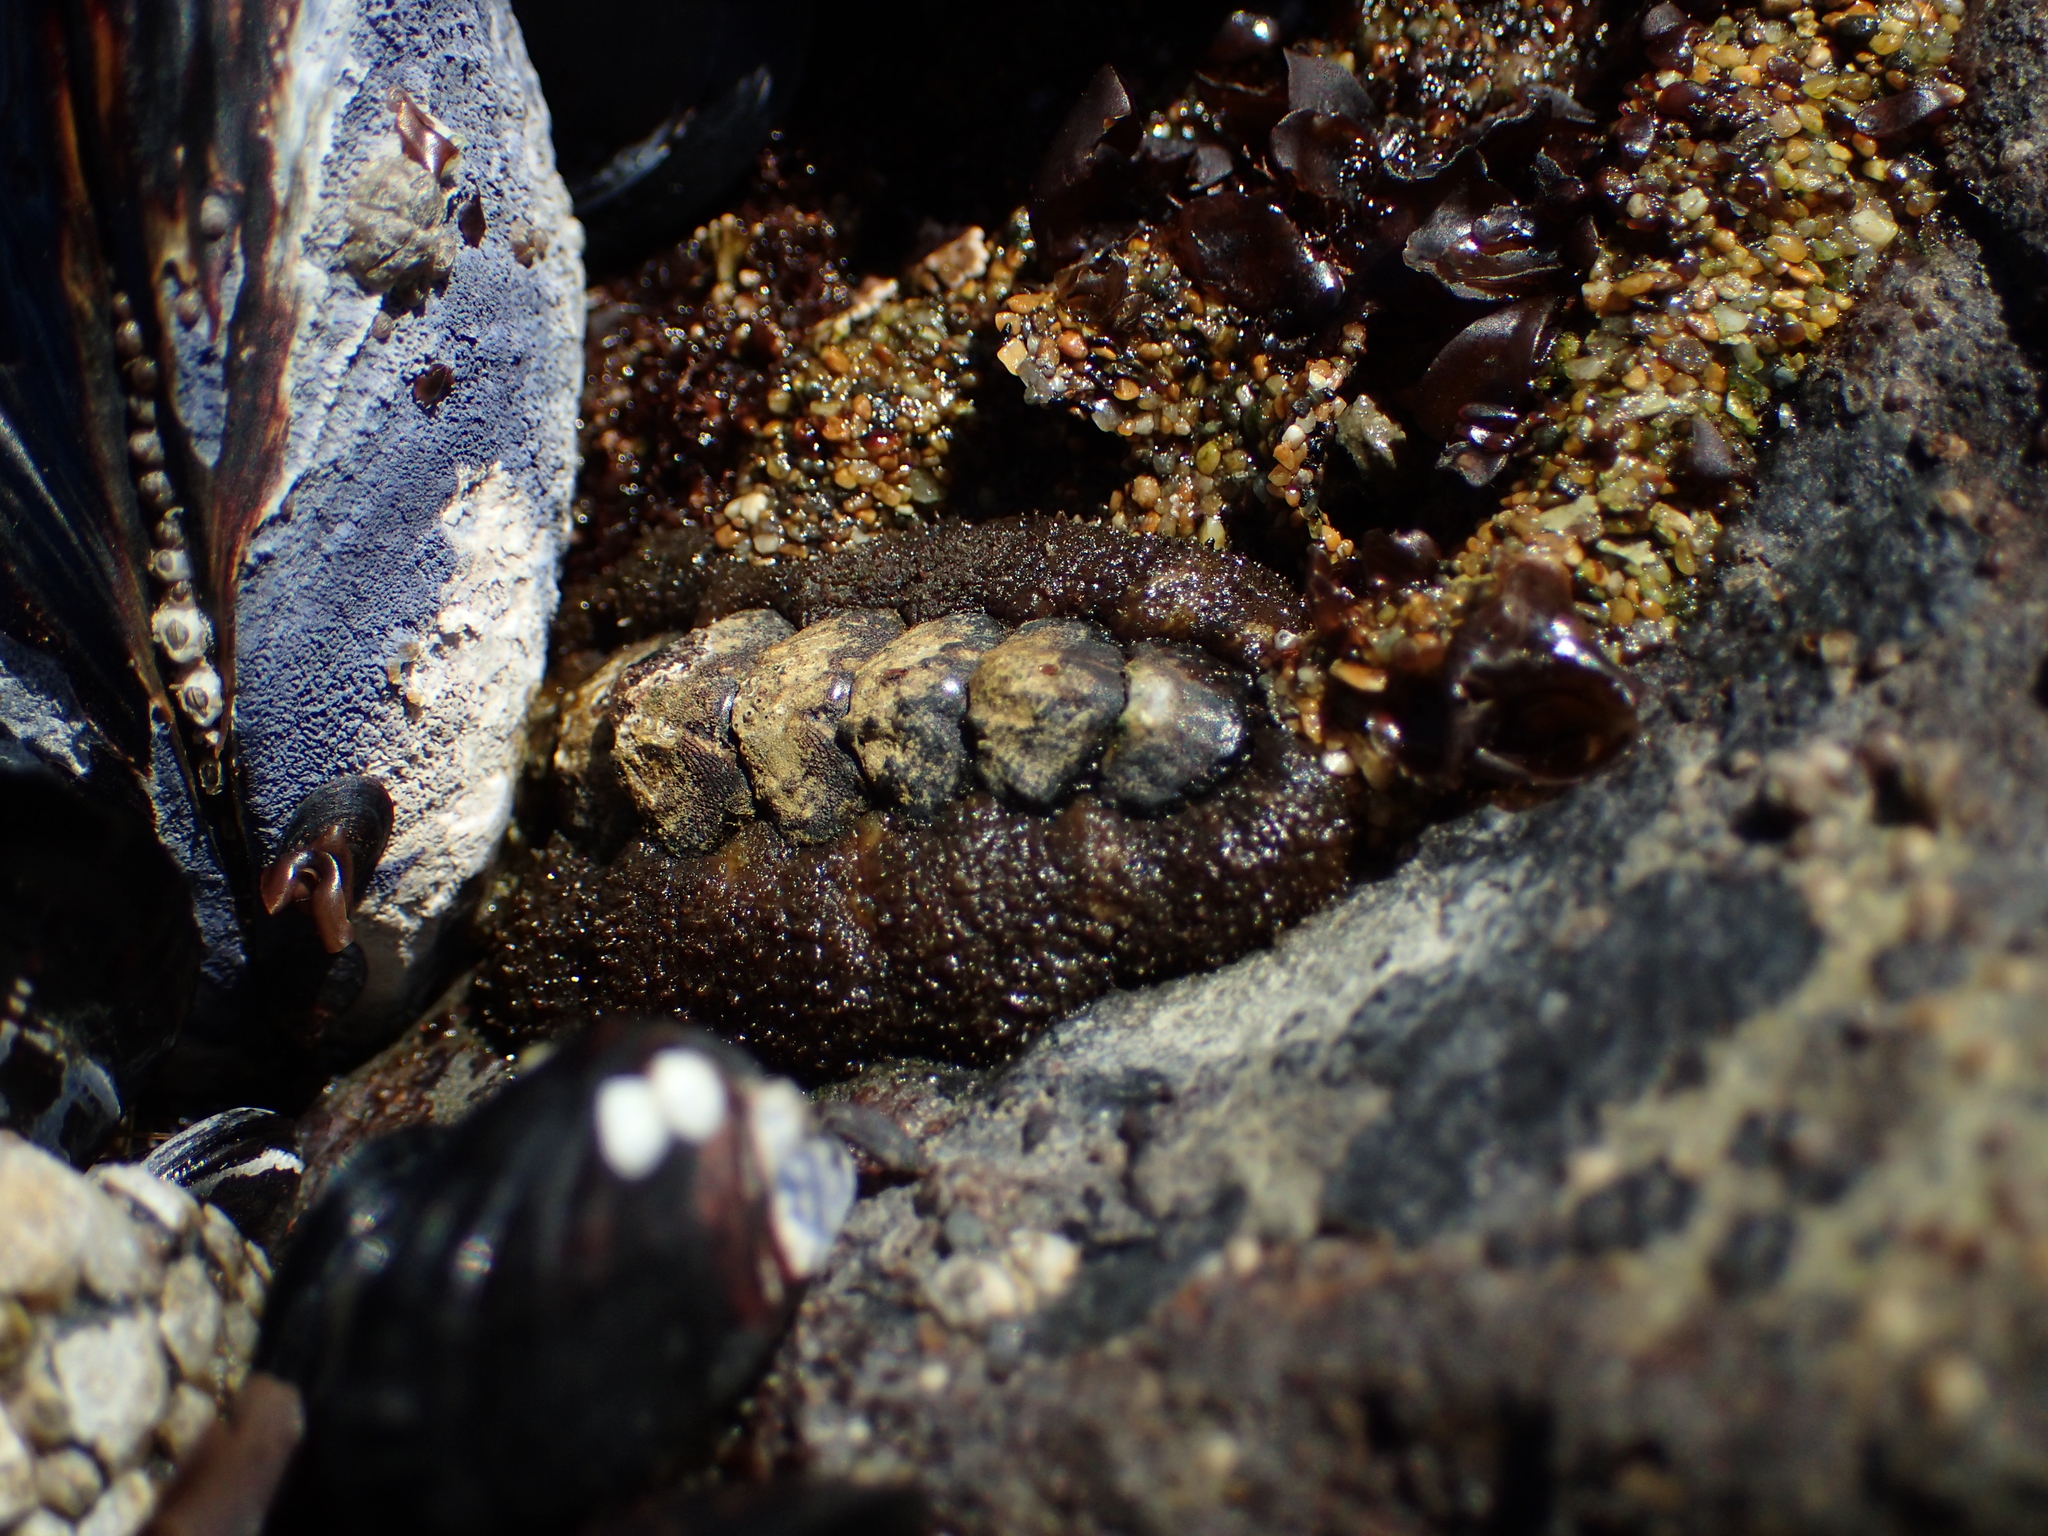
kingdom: Animalia
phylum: Mollusca
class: Polyplacophora
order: Chitonida
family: Tonicellidae
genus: Nuttallina
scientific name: Nuttallina californica
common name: California nuttall chiton
